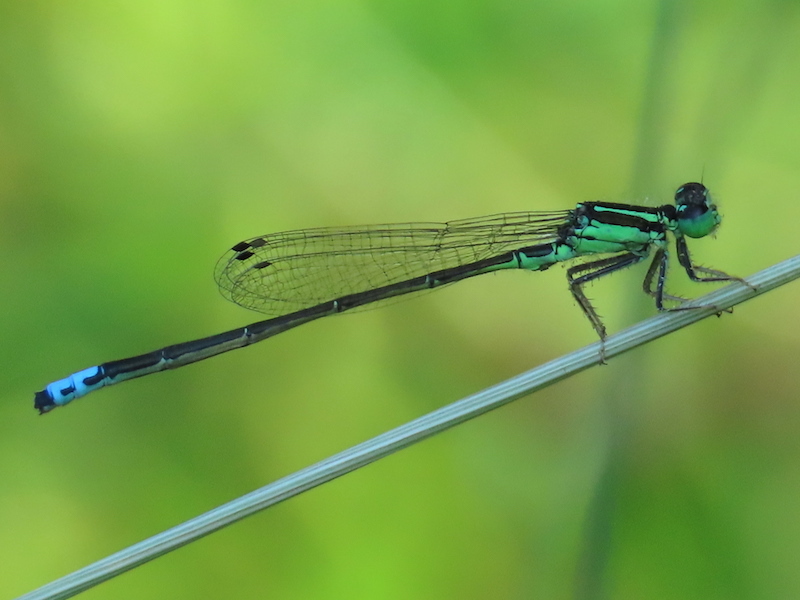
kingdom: Animalia
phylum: Arthropoda
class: Insecta
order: Odonata
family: Coenagrionidae
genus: Ischnura
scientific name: Ischnura verticalis
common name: Eastern forktail
